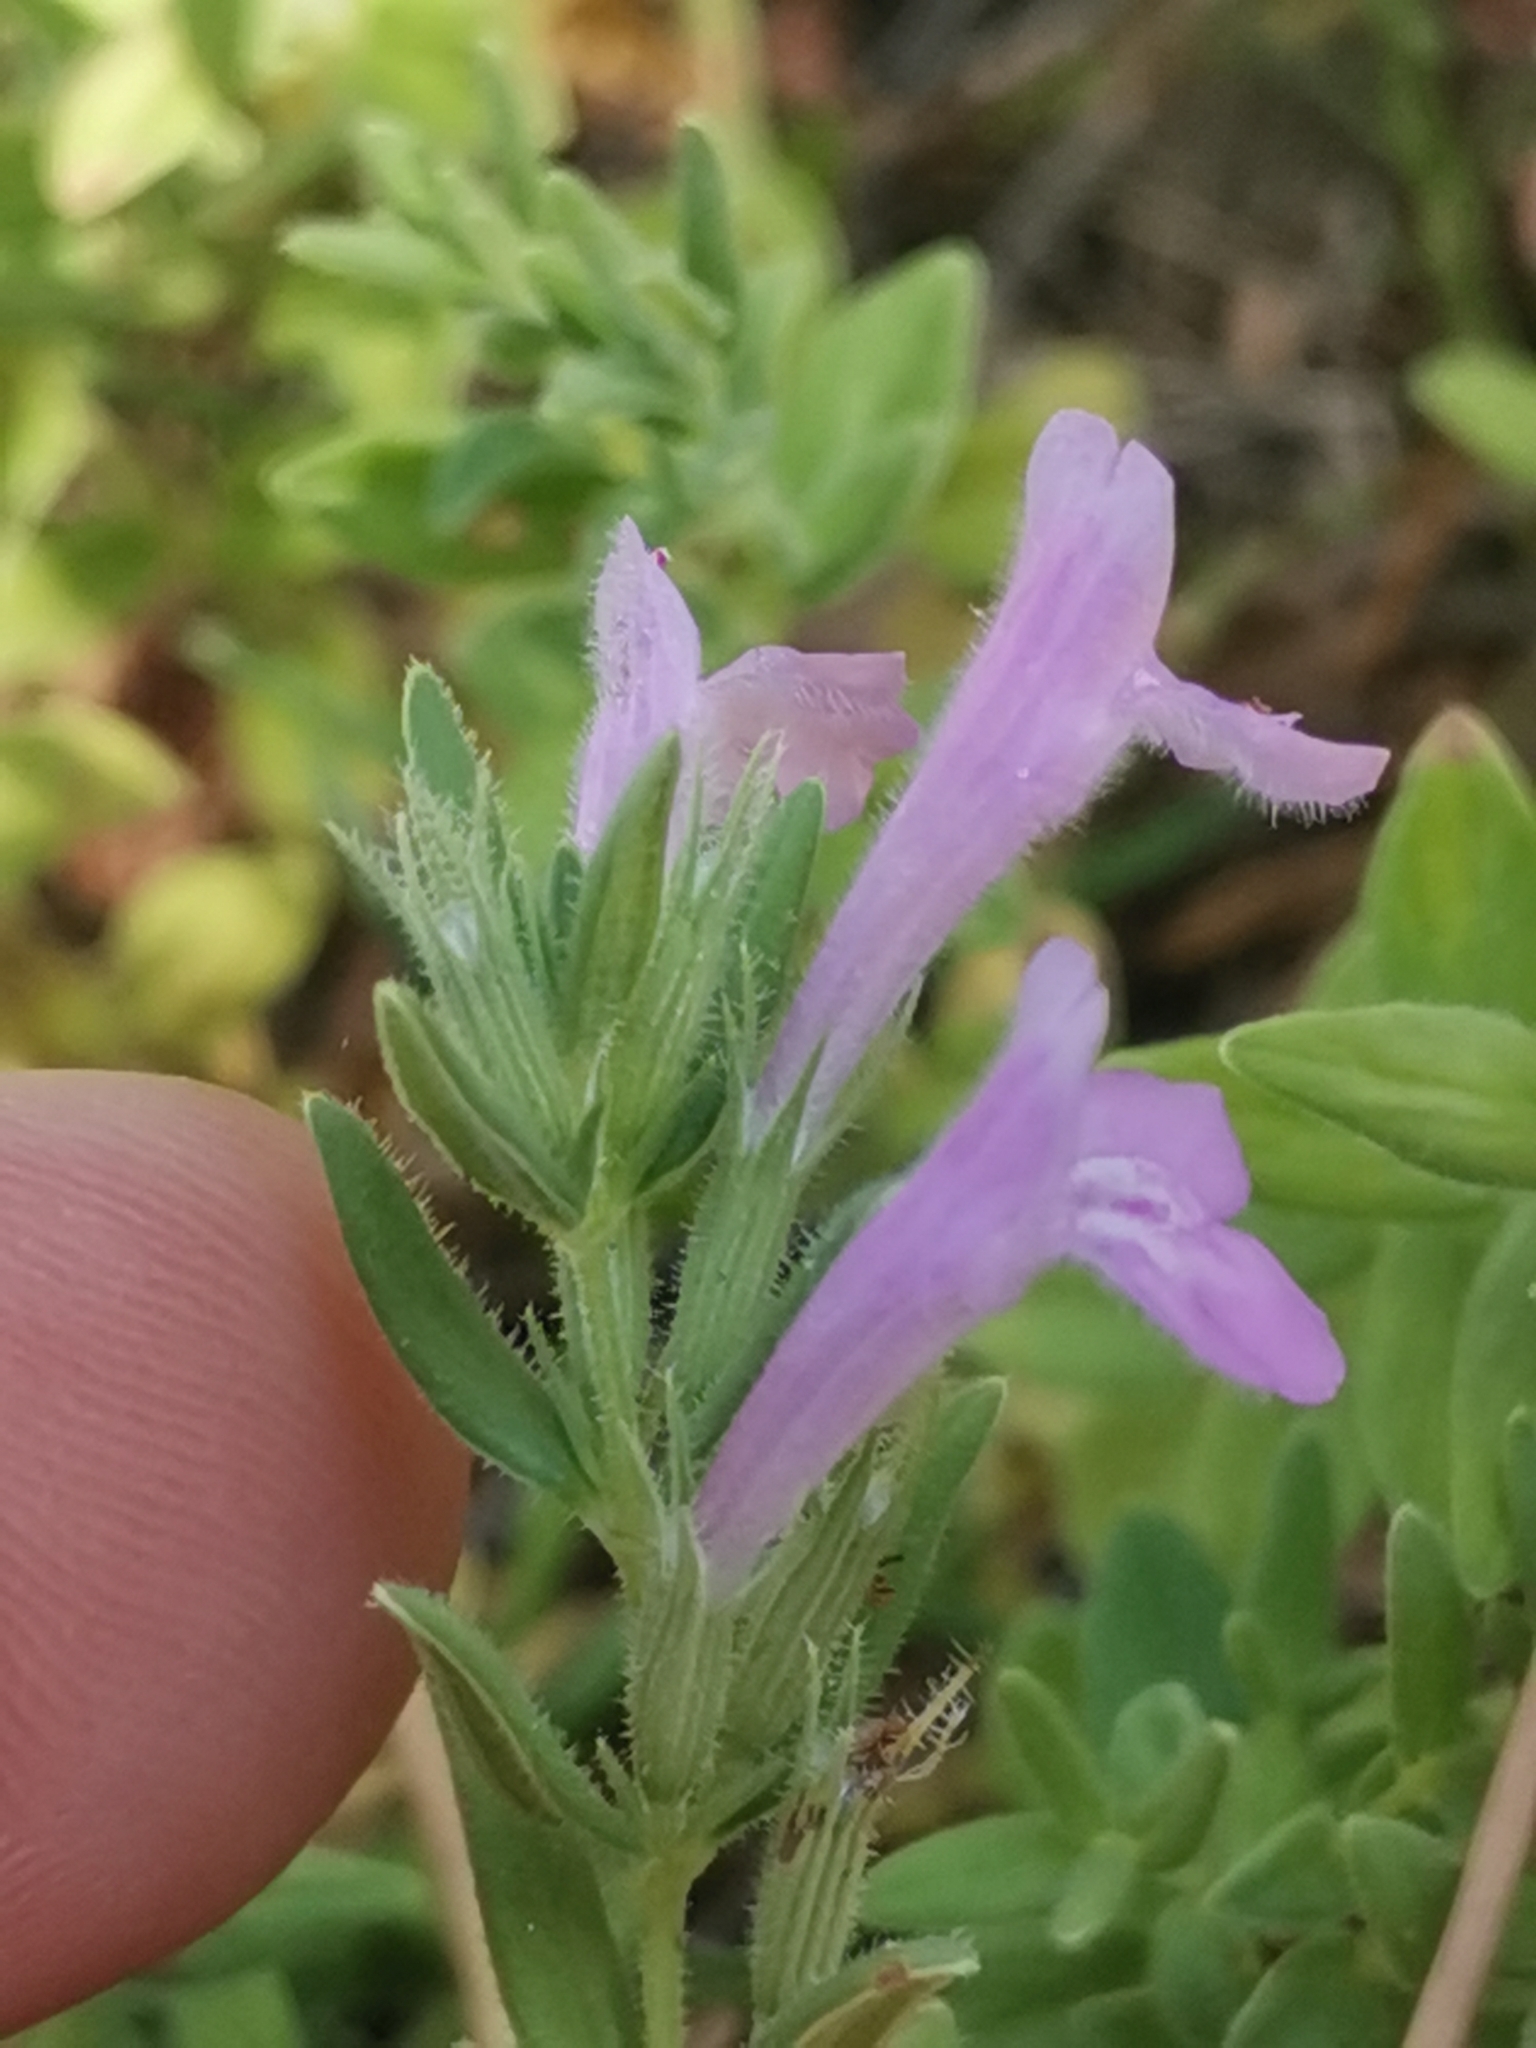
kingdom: Plantae
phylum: Tracheophyta
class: Magnoliopsida
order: Lamiales
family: Lamiaceae
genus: Micromeria
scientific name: Micromeria graeca
